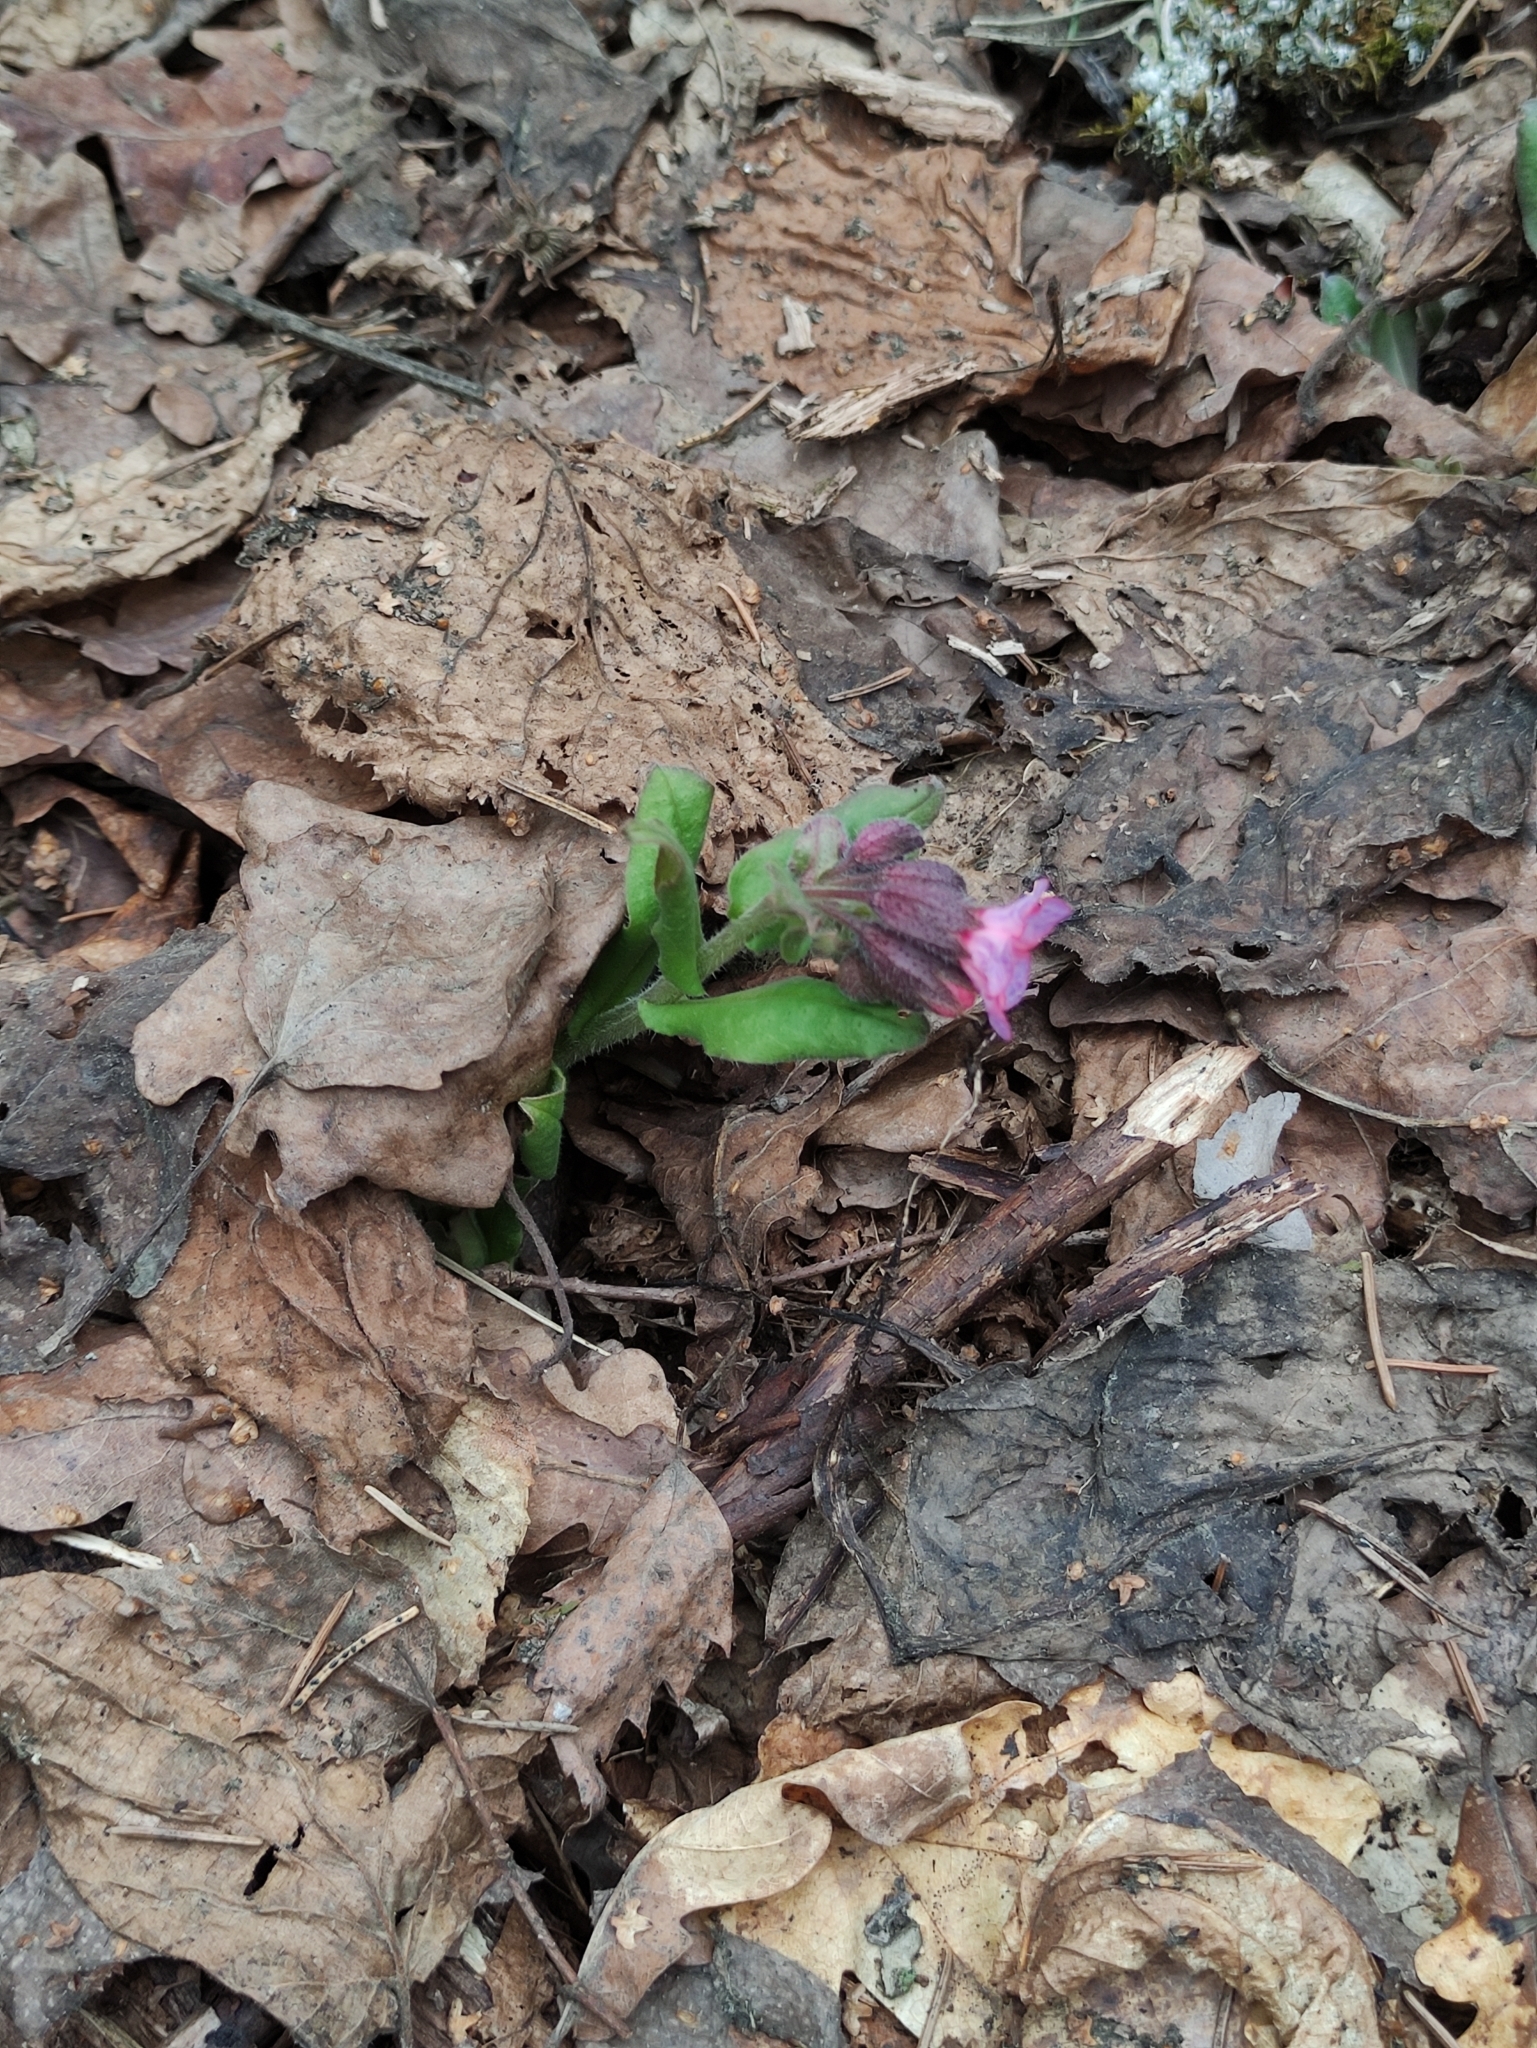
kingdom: Plantae
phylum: Tracheophyta
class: Magnoliopsida
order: Boraginales
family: Boraginaceae
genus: Pulmonaria
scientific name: Pulmonaria obscura
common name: Suffolk lungwort
